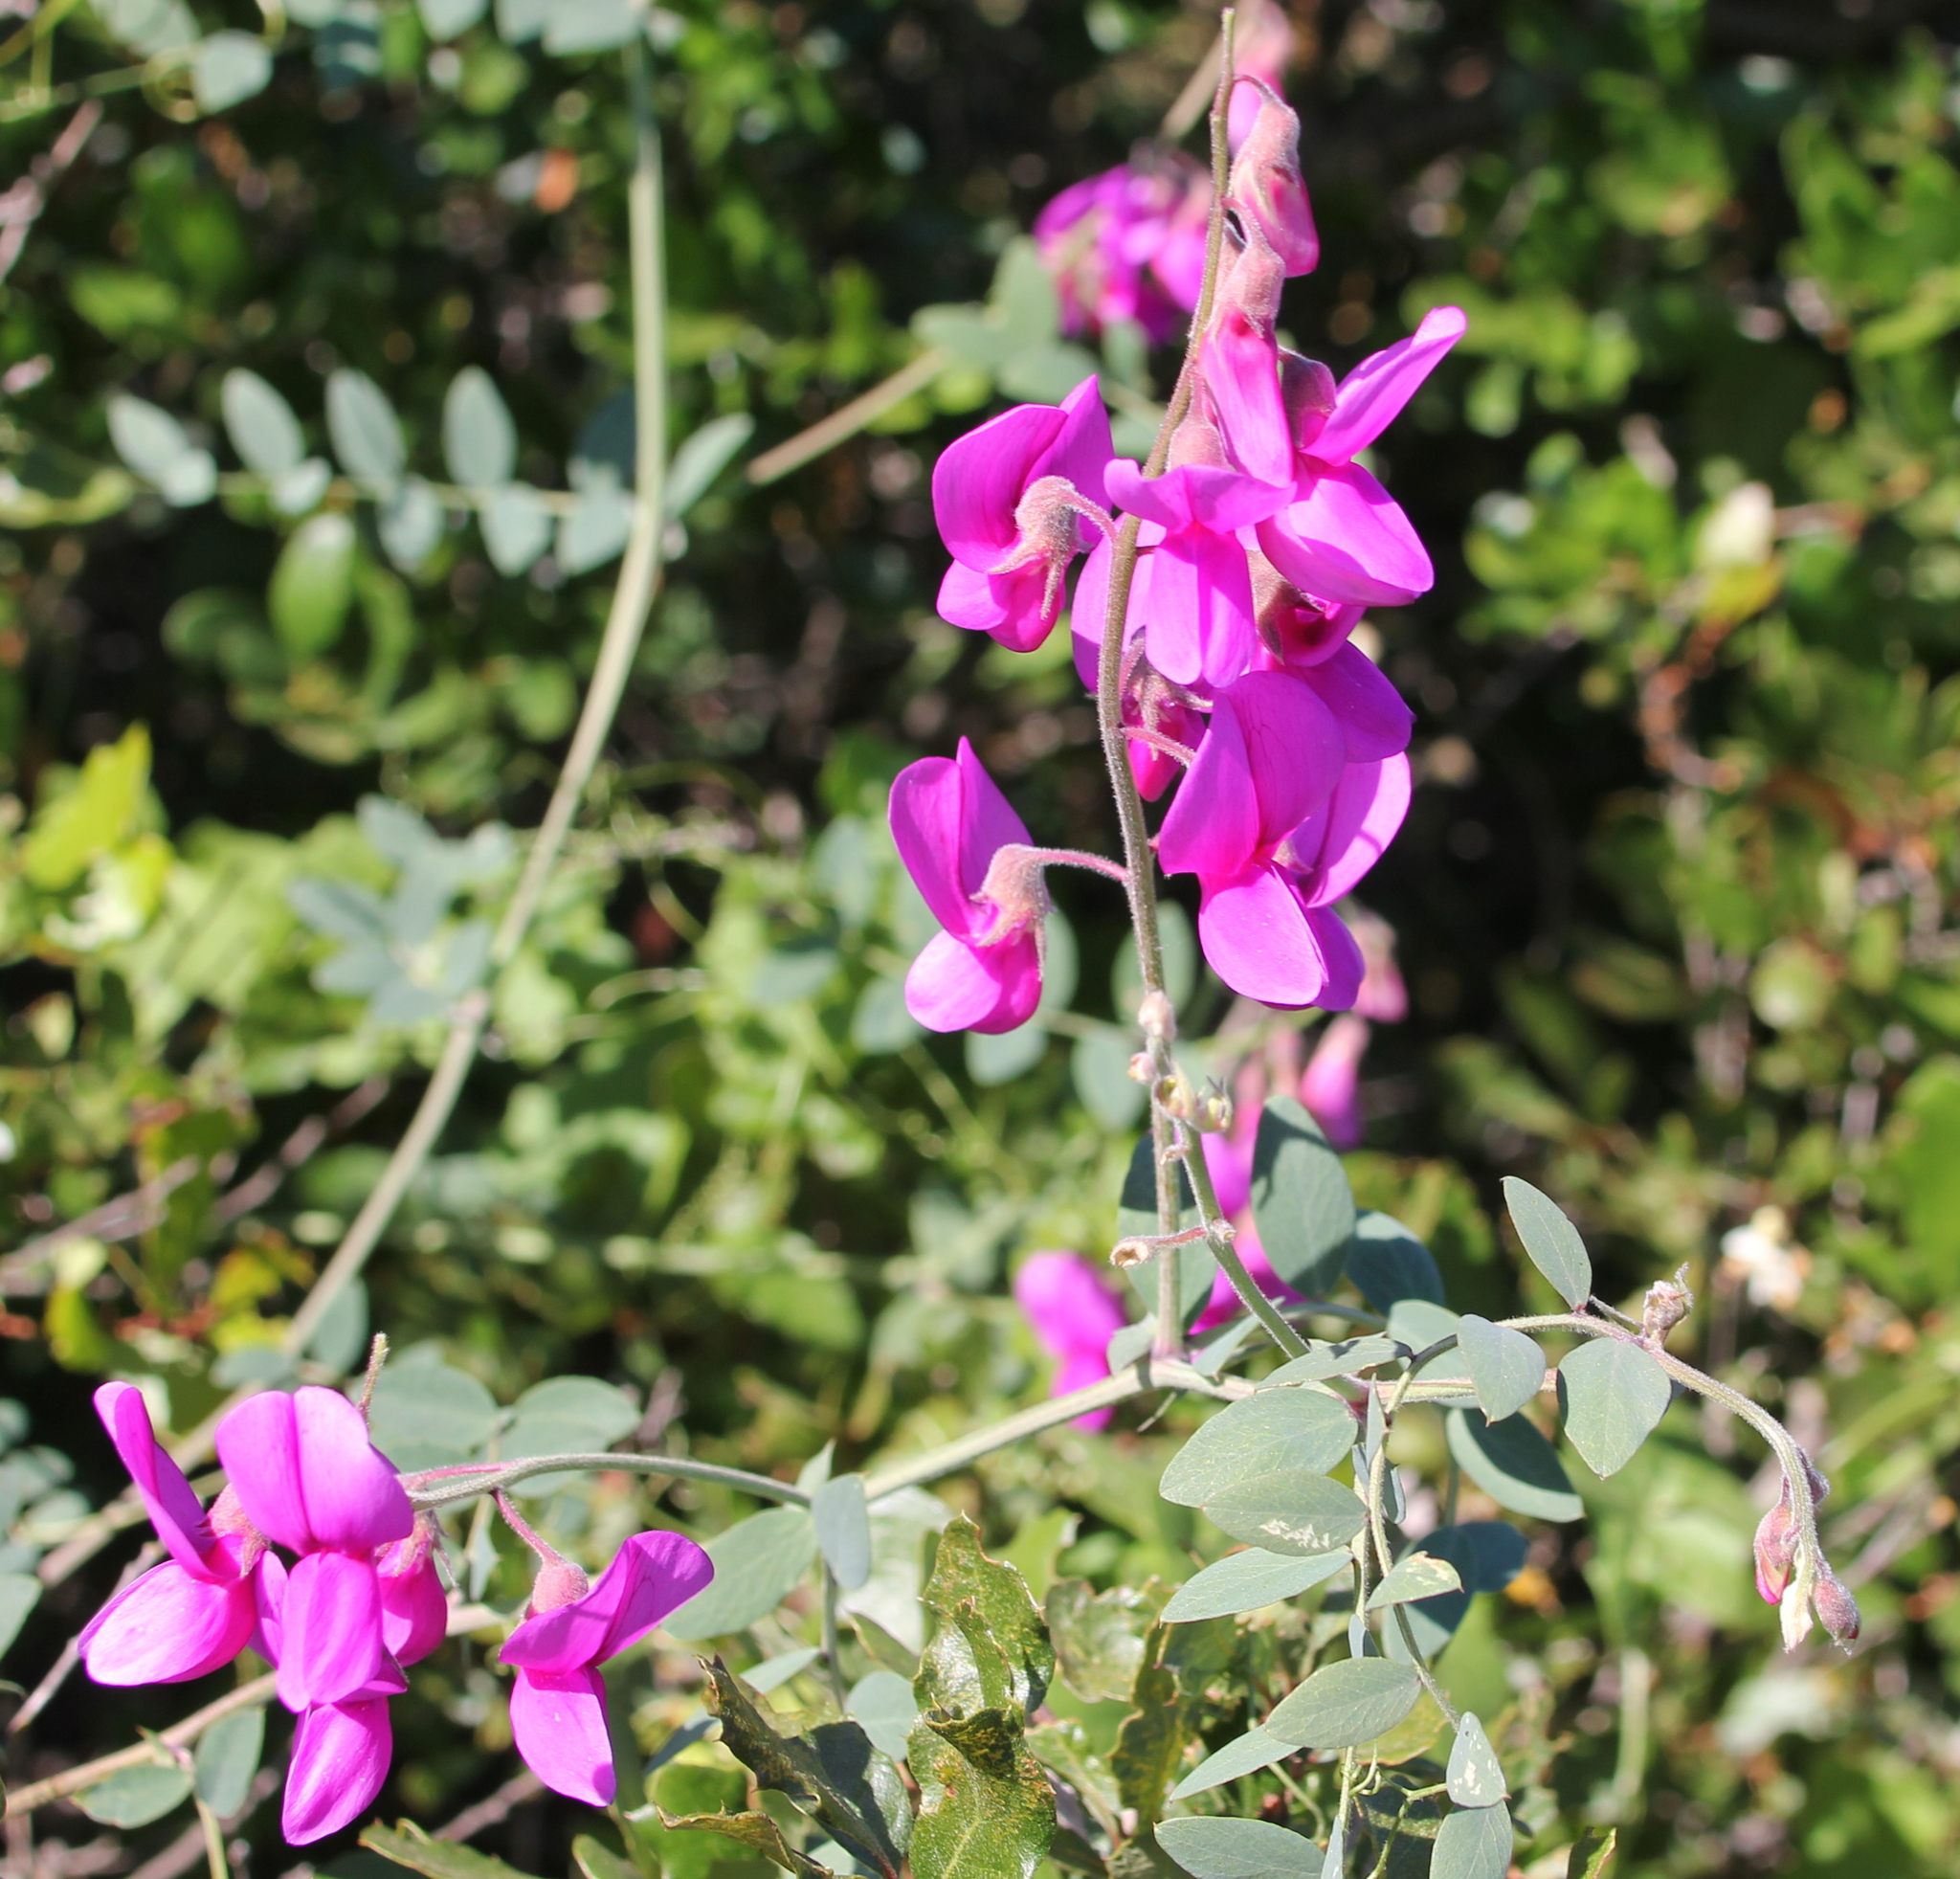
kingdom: Plantae
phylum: Tracheophyta
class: Magnoliopsida
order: Fabales
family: Fabaceae
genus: Lathyrus
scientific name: Lathyrus vestitus
